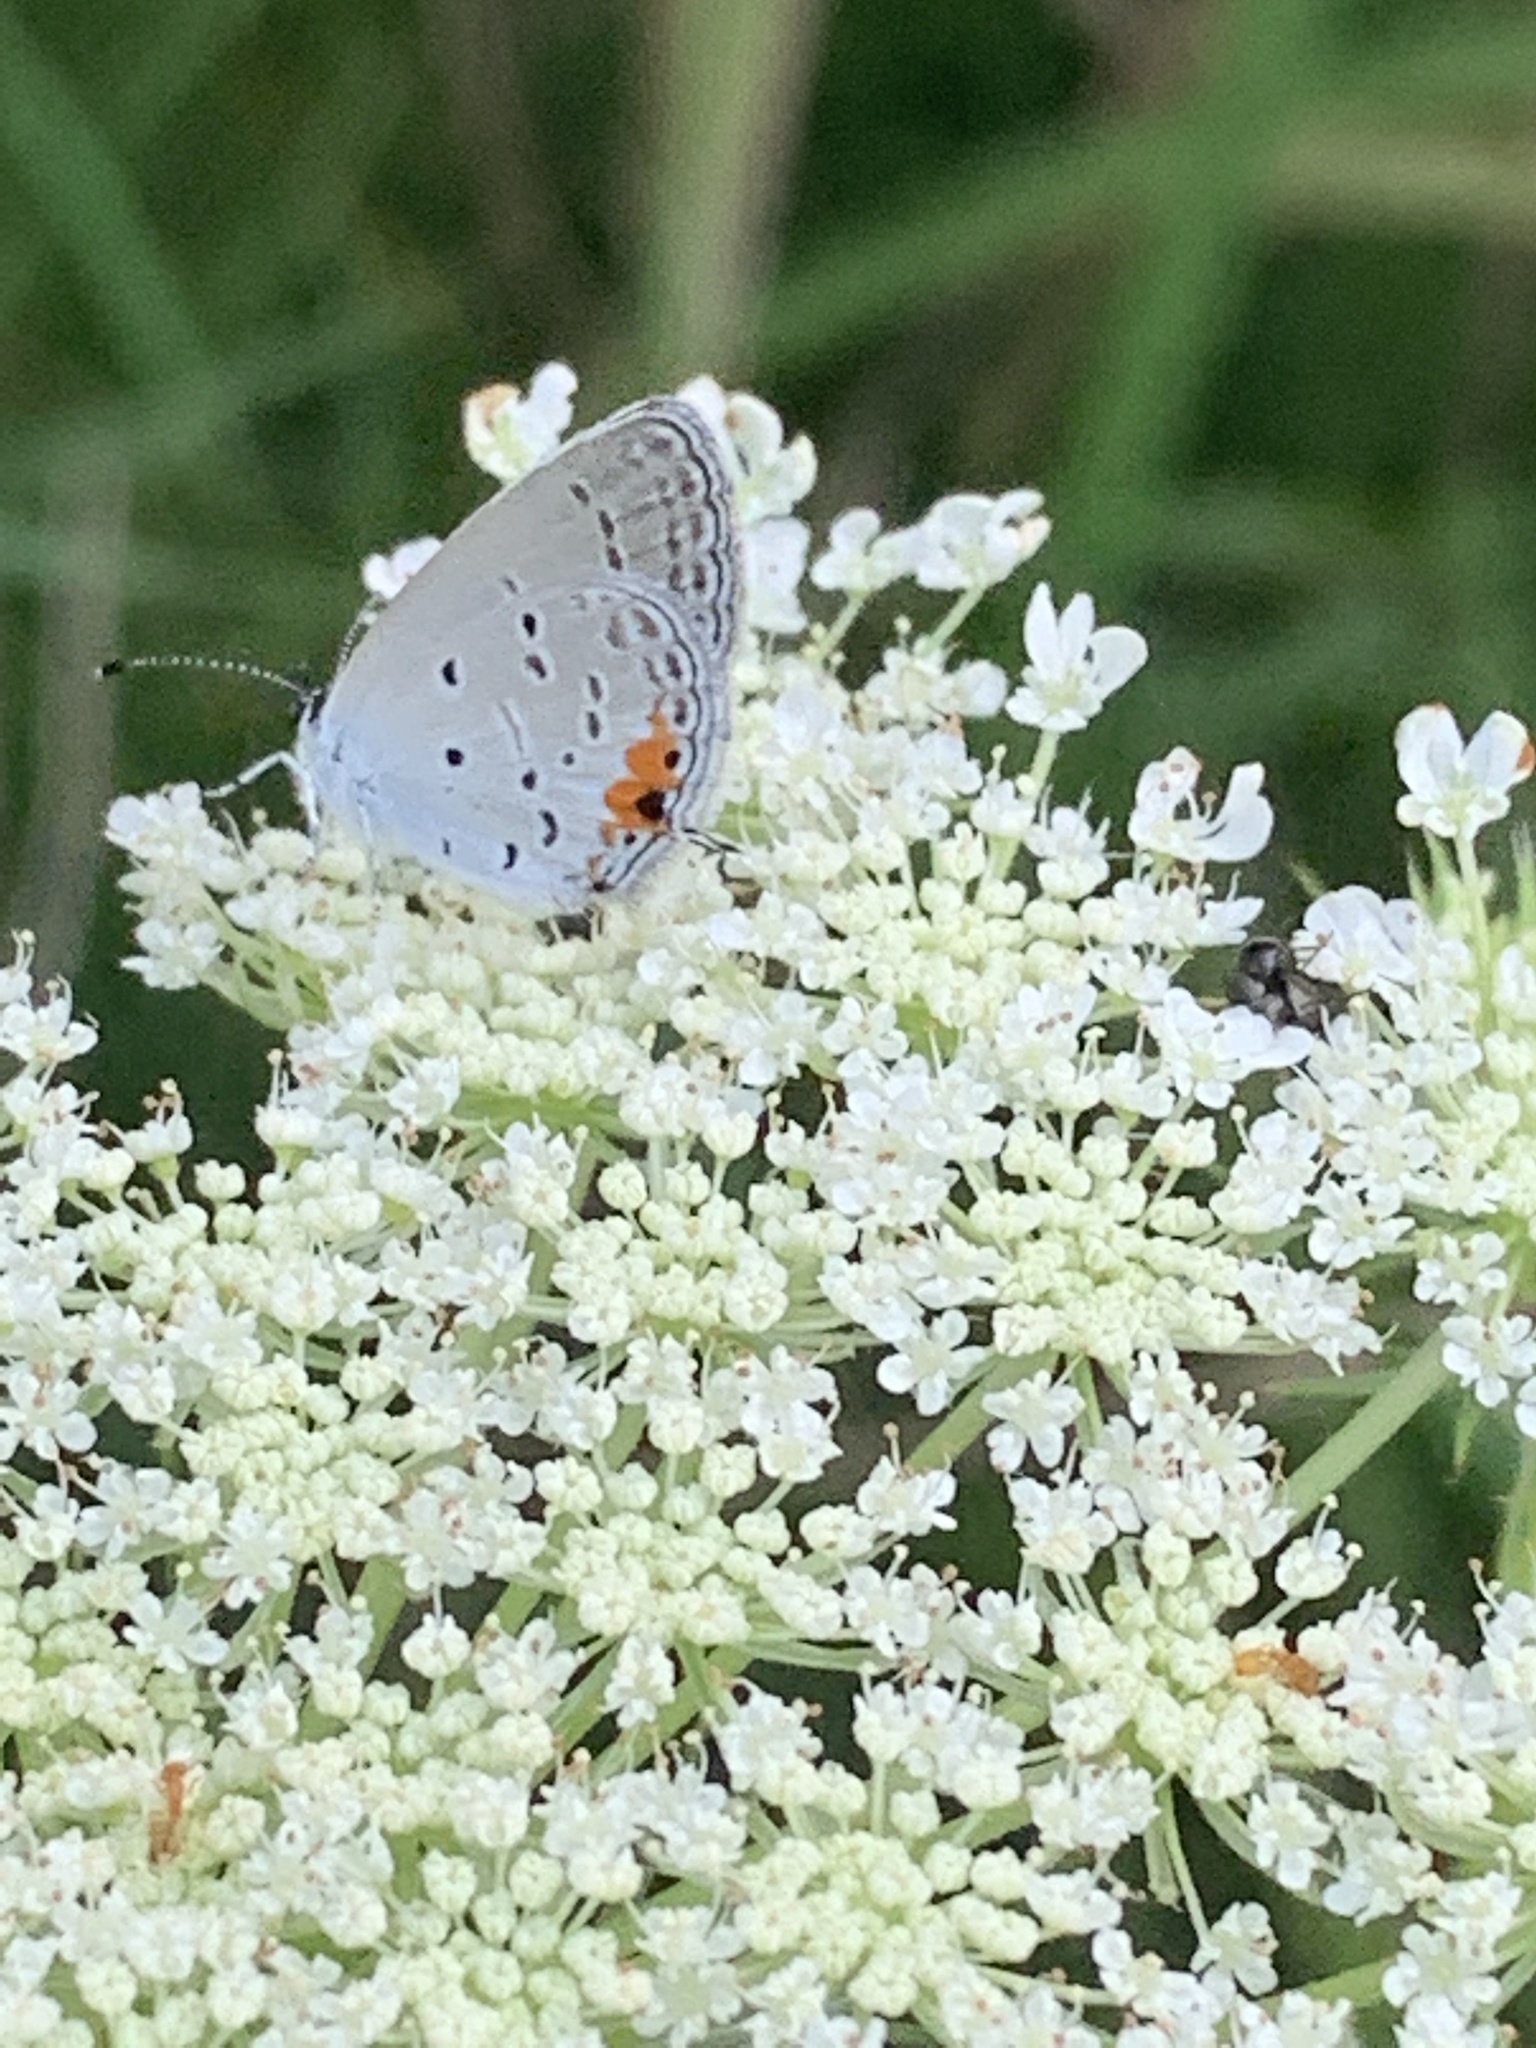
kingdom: Animalia
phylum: Arthropoda
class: Insecta
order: Lepidoptera
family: Lycaenidae
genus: Elkalyce
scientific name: Elkalyce comyntas
